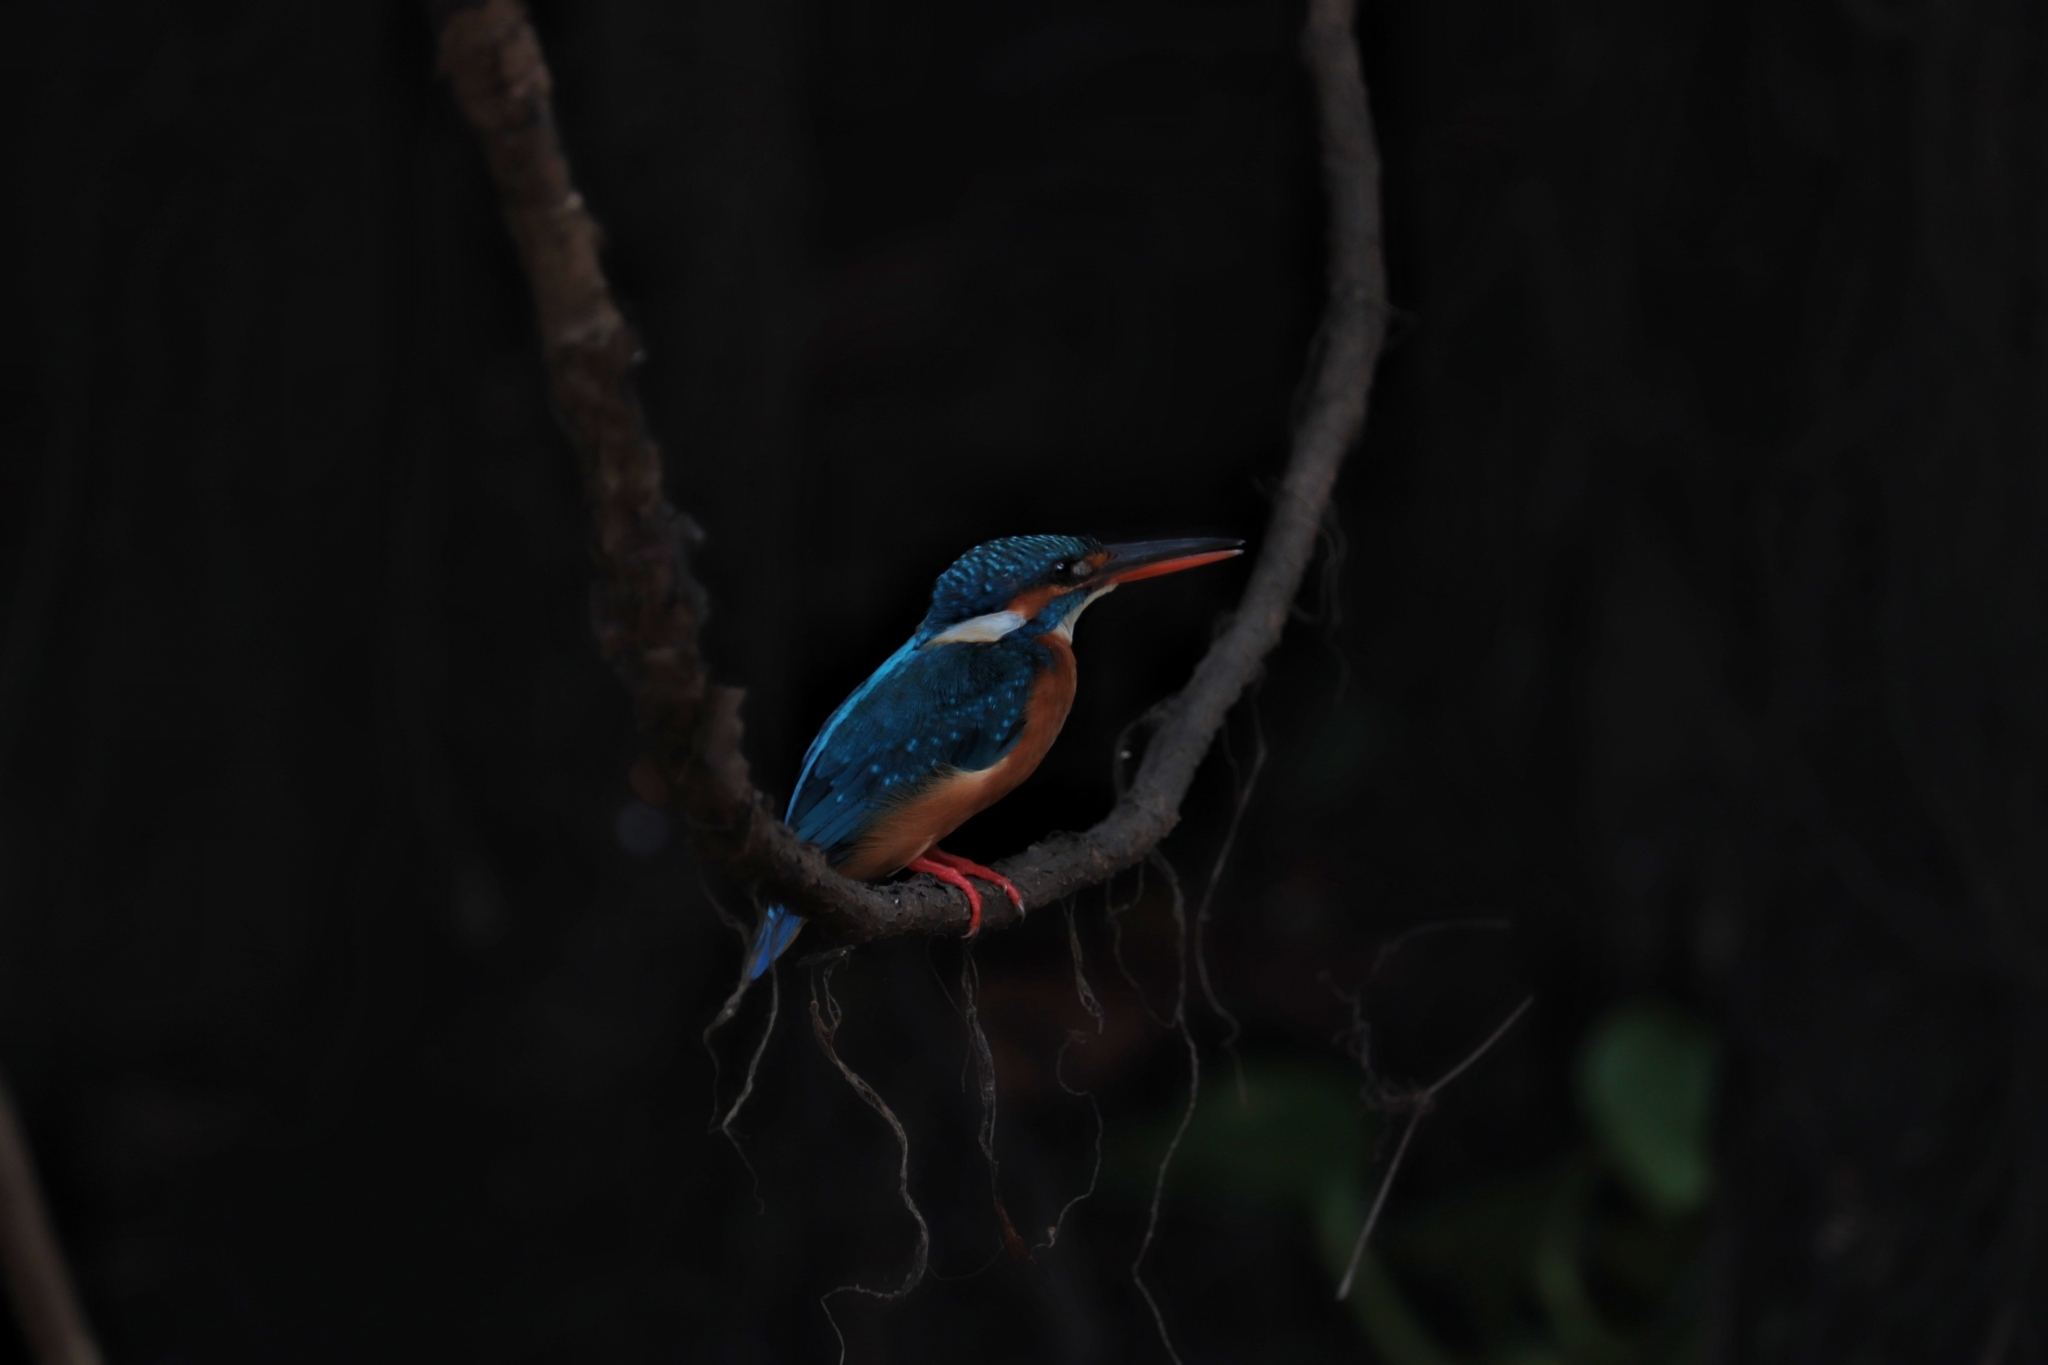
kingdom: Animalia
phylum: Chordata
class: Aves
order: Coraciiformes
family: Alcedinidae
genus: Alcedo
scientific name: Alcedo atthis
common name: Common kingfisher
